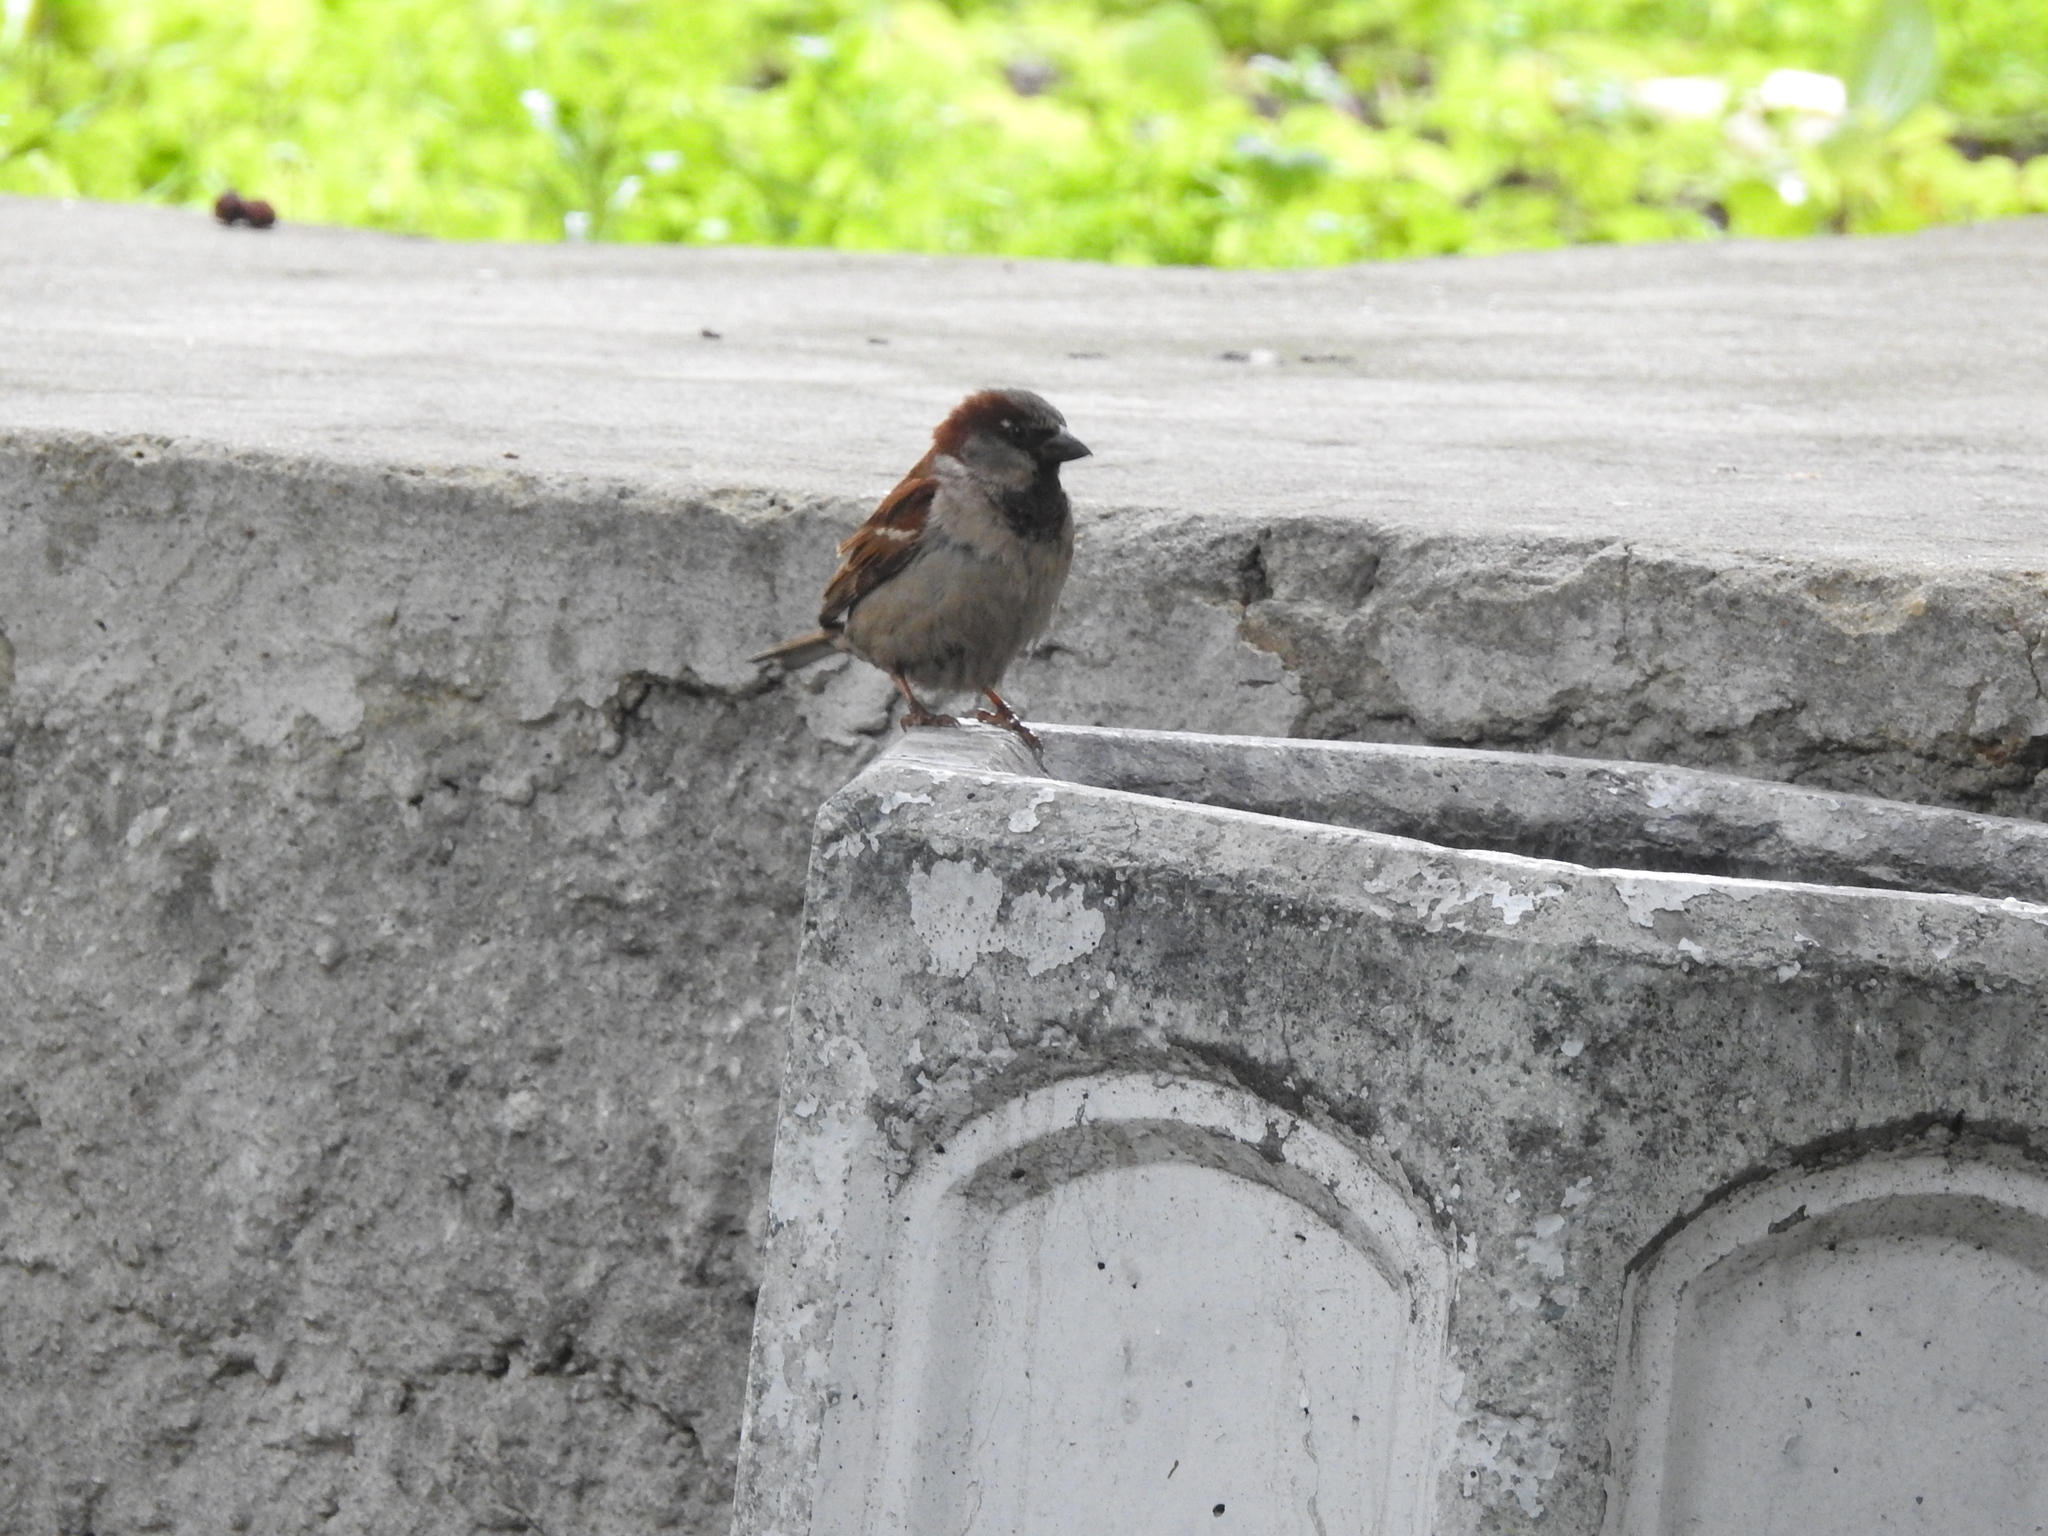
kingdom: Animalia
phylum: Chordata
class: Aves
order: Passeriformes
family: Passeridae
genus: Passer
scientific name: Passer domesticus
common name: House sparrow
